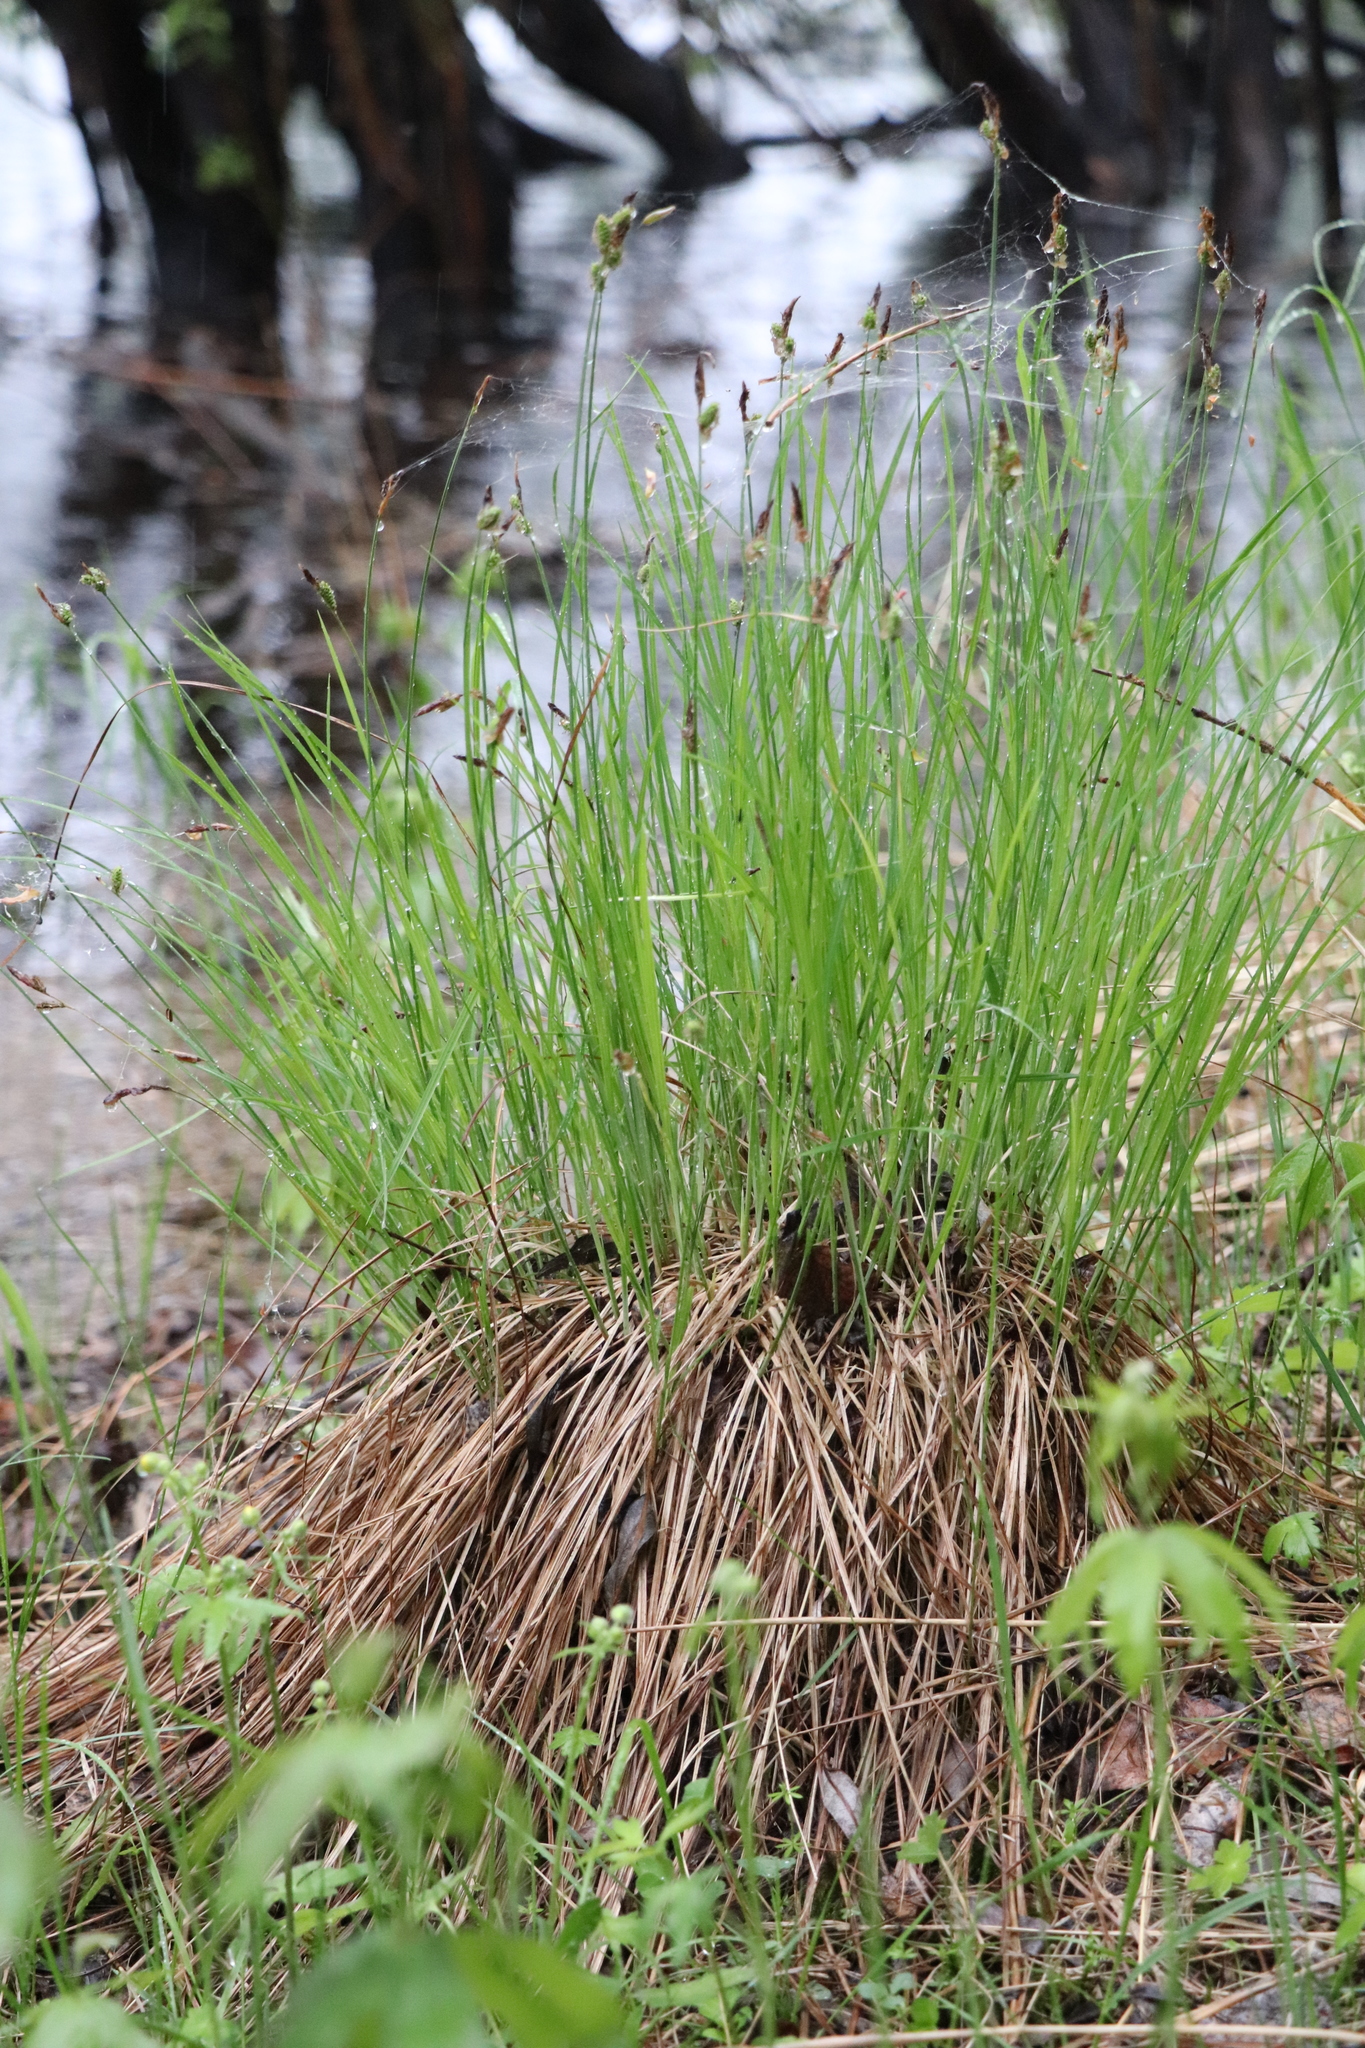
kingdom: Plantae
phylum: Tracheophyta
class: Liliopsida
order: Poales
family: Cyperaceae
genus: Carex
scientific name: Carex cespitosa
